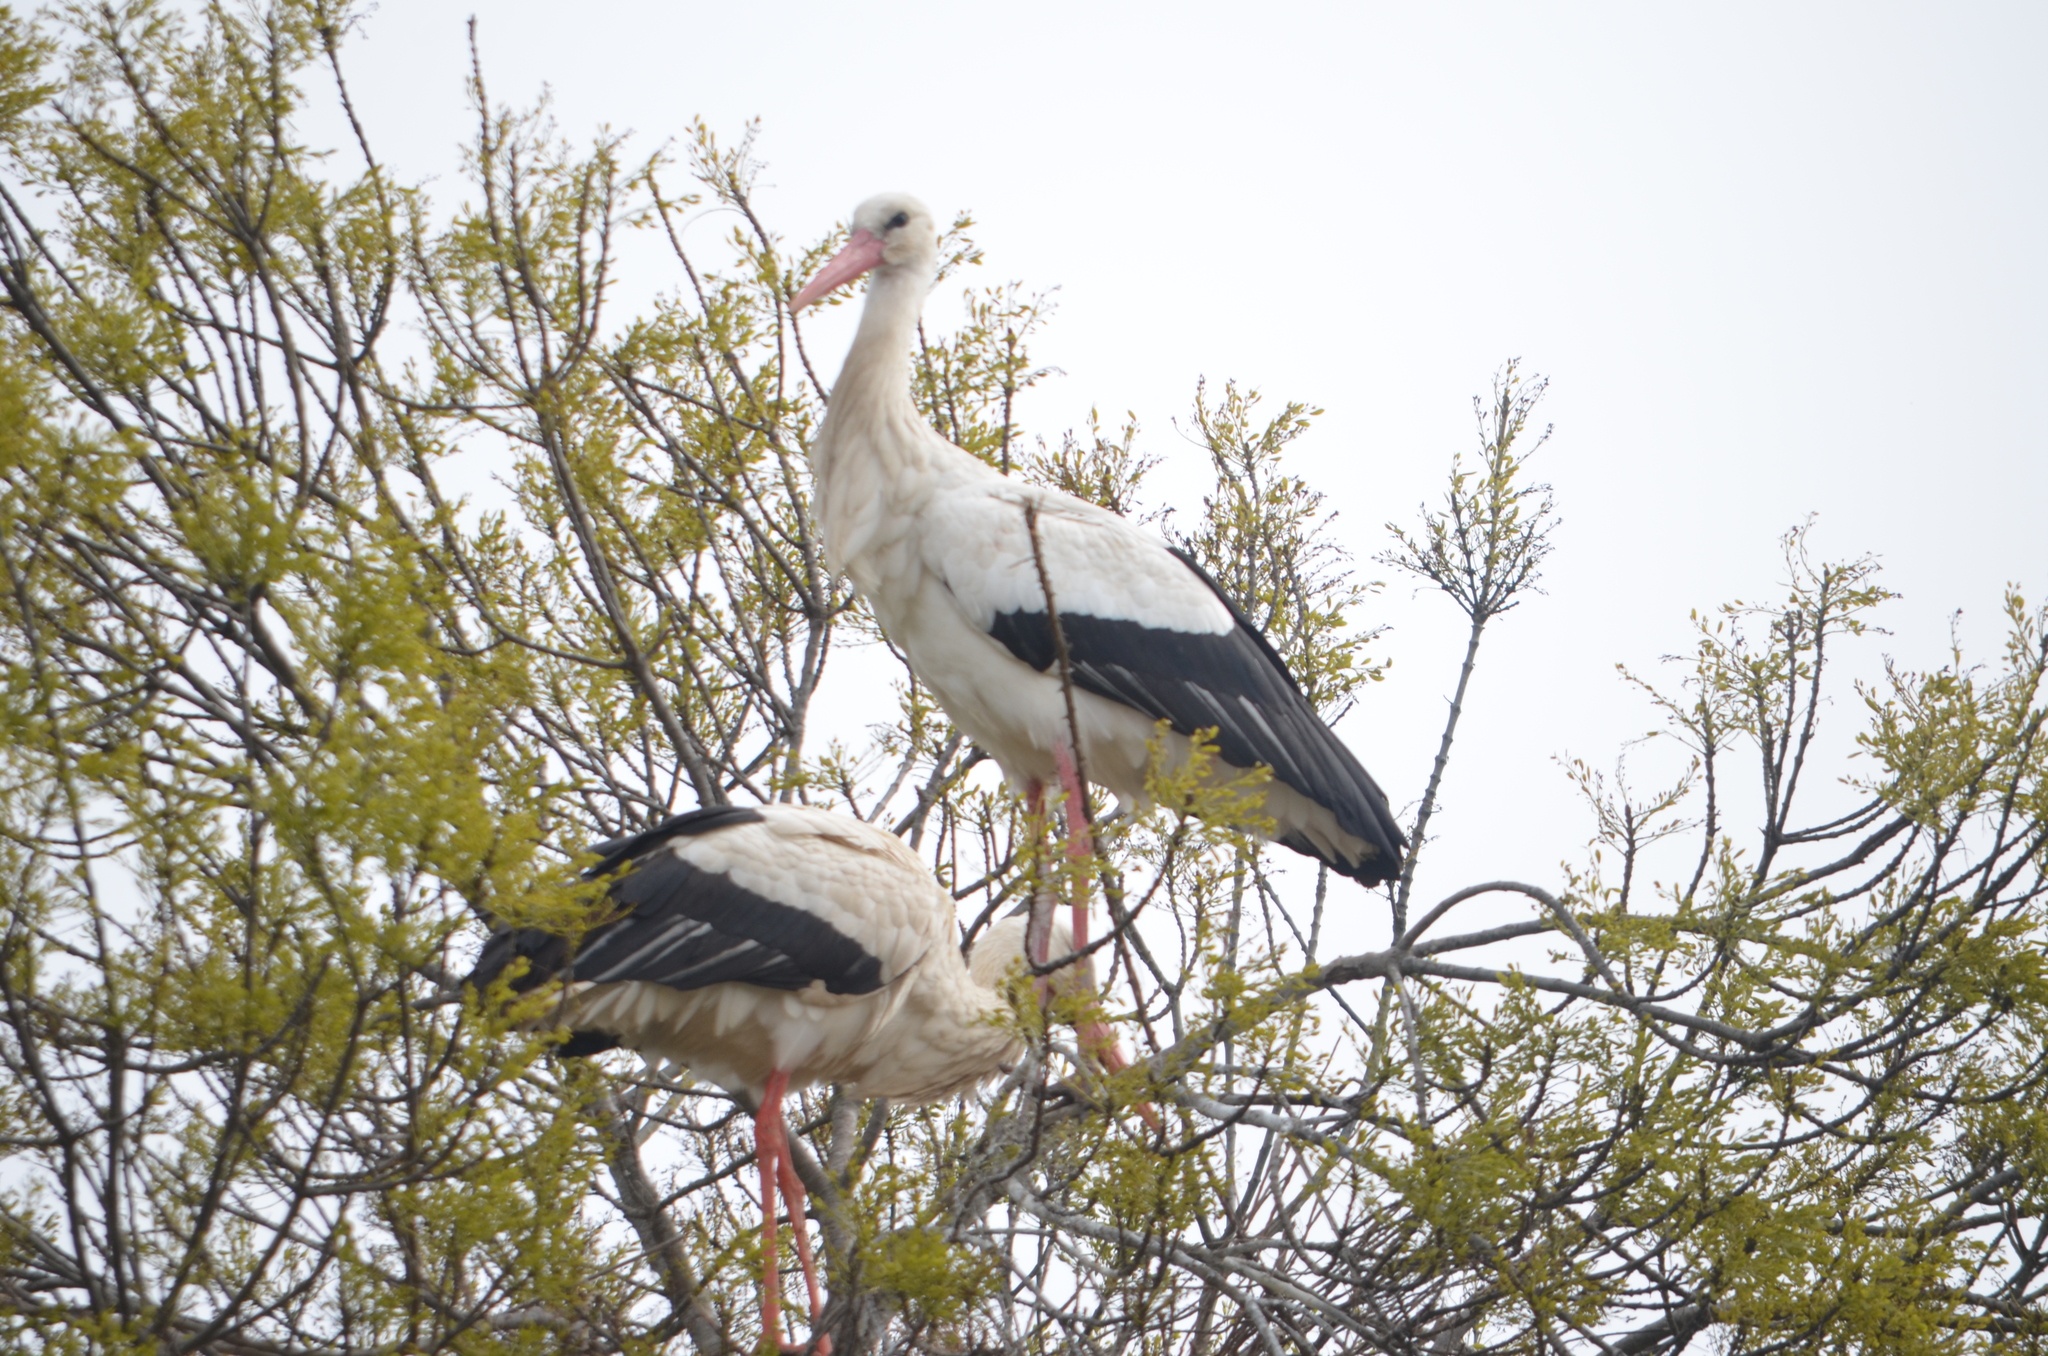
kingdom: Animalia
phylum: Chordata
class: Aves
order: Ciconiiformes
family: Ciconiidae
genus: Ciconia
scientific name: Ciconia ciconia
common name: White stork
